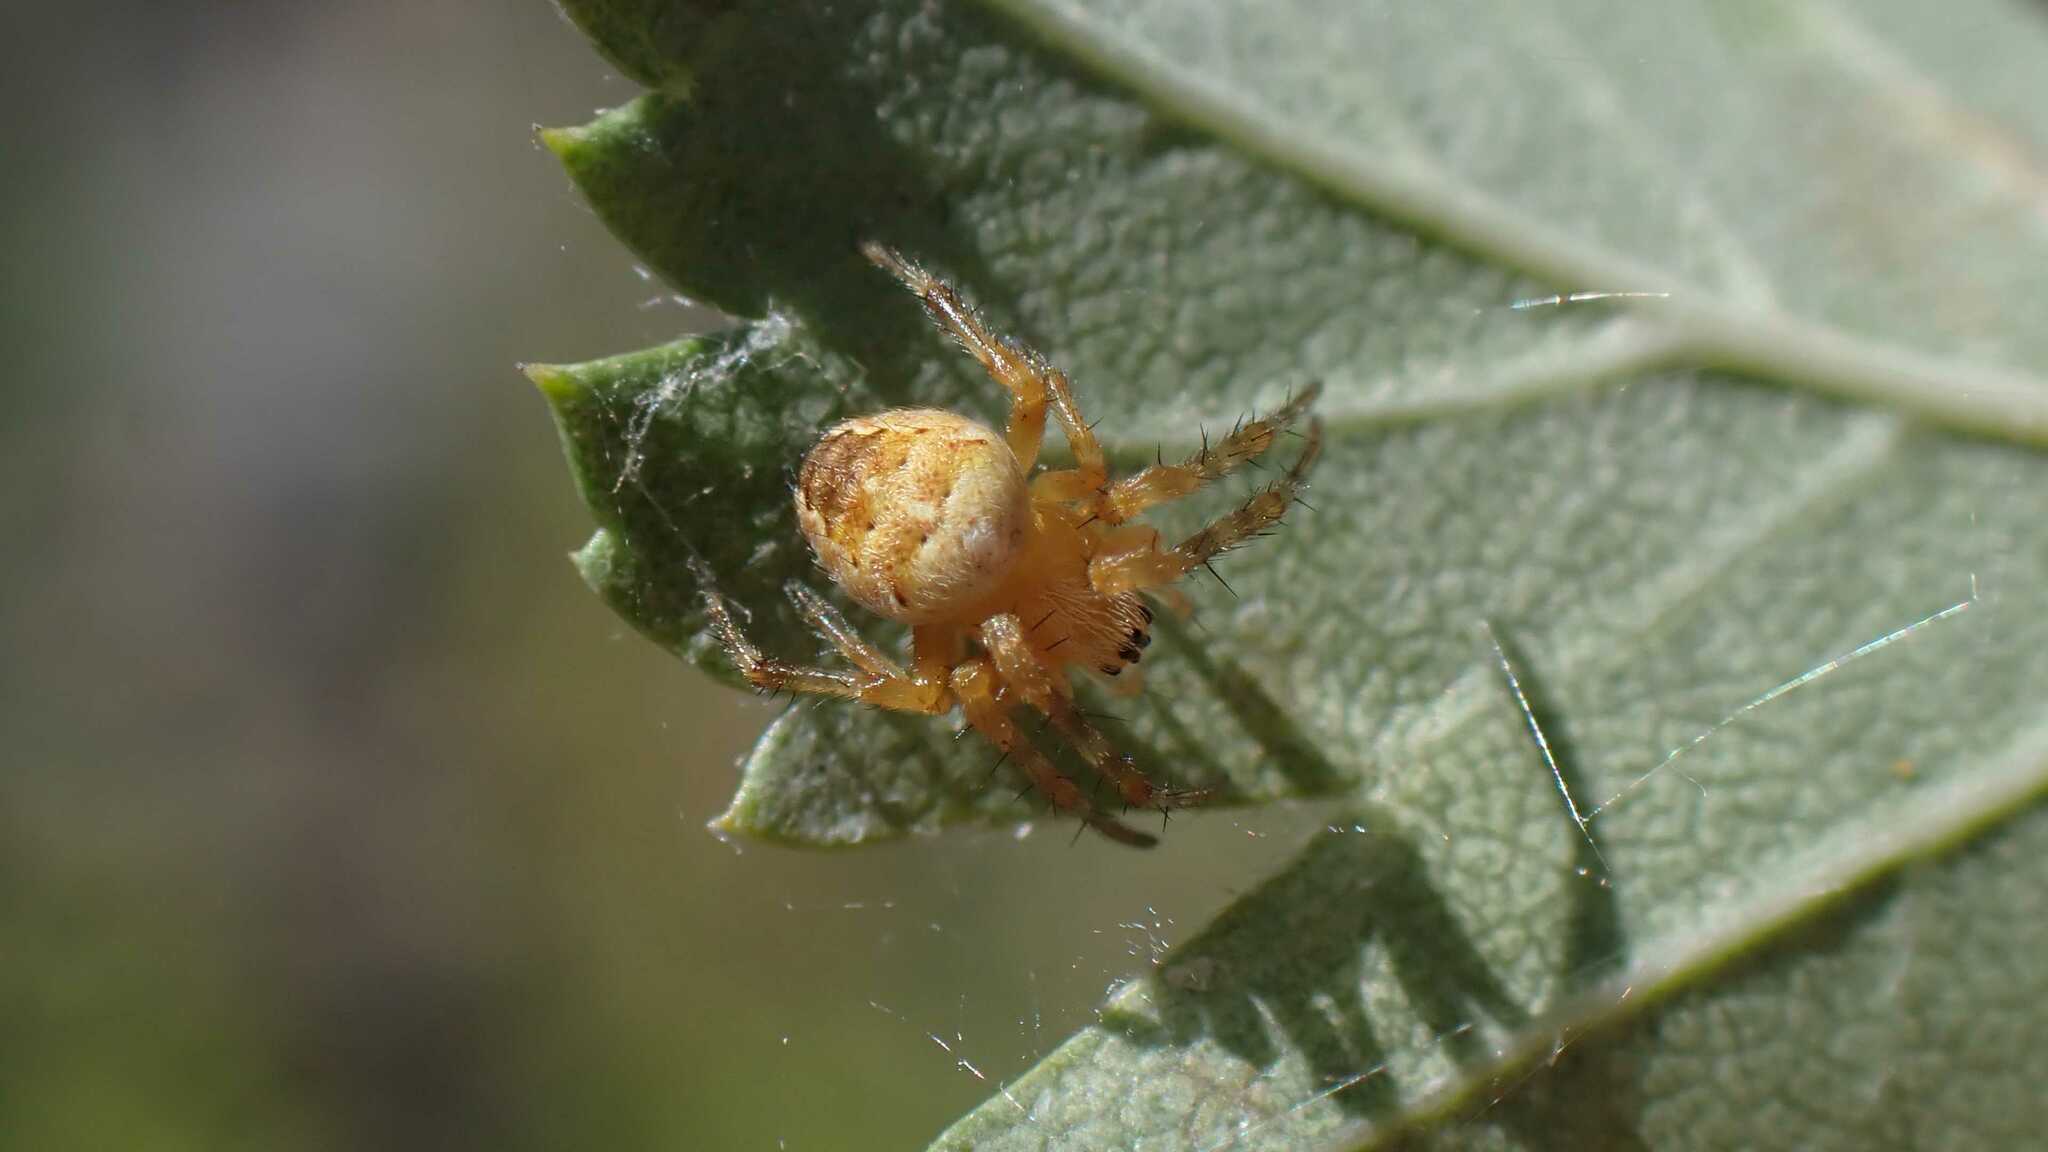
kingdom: Animalia
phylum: Arthropoda
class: Arachnida
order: Araneae
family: Araneidae
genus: Araneus
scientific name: Araneus diadematus
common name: Cross orbweaver
